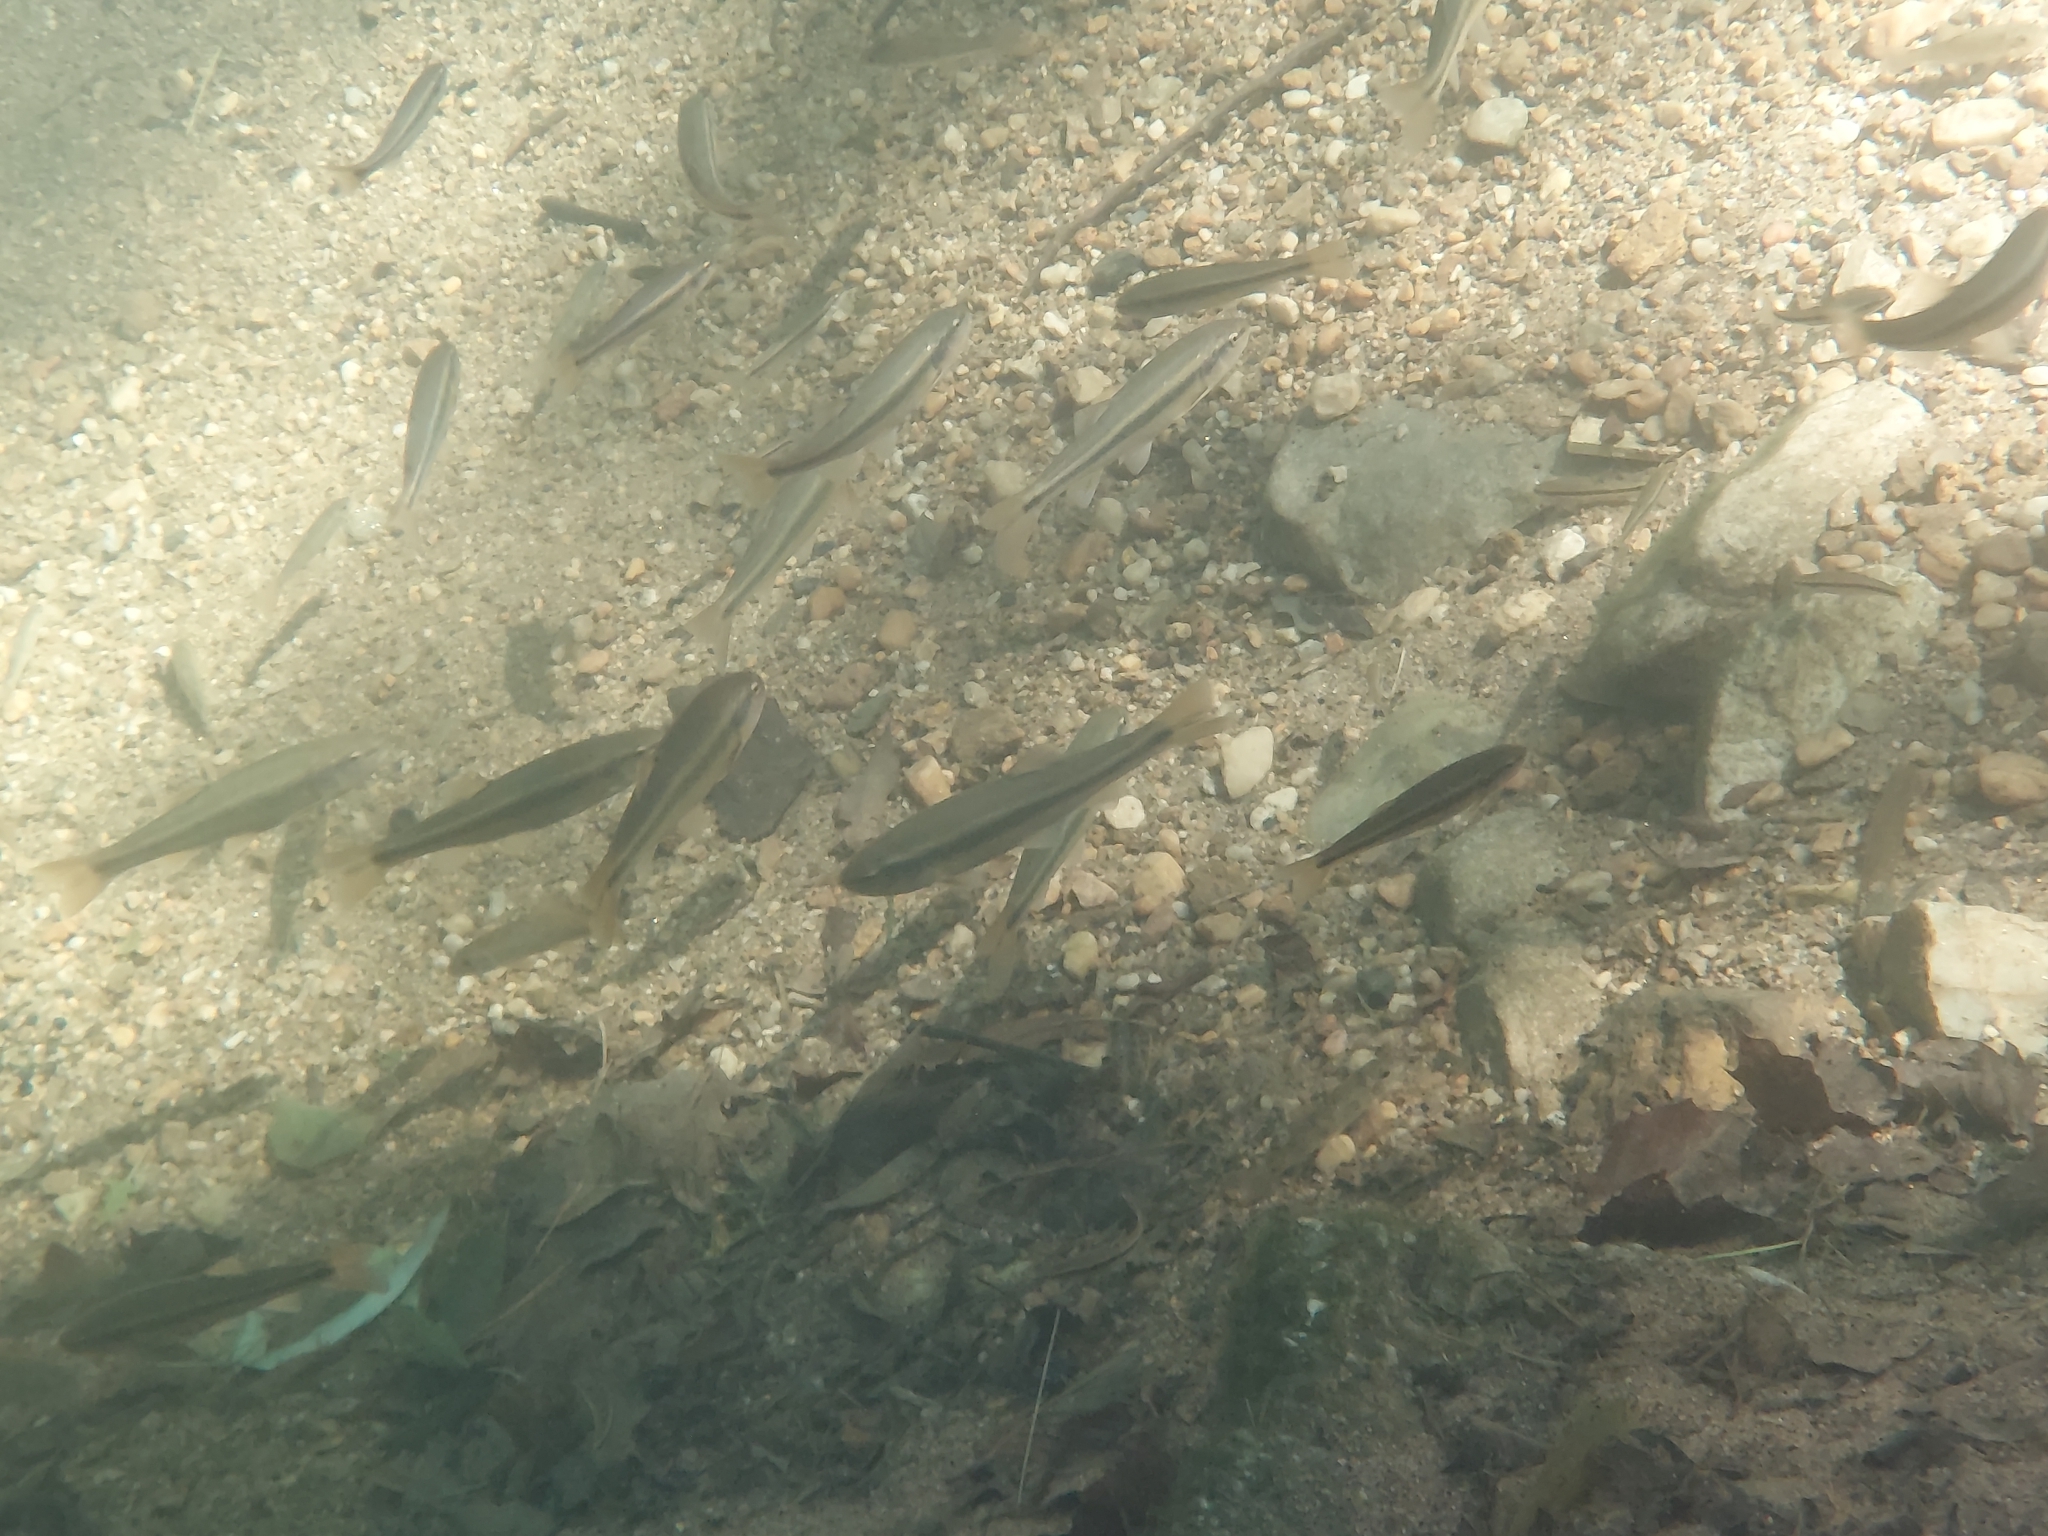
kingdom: Animalia
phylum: Chordata
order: Cypriniformes
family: Cyprinidae
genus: Semotilus
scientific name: Semotilus atromaculatus
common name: Creek chub
